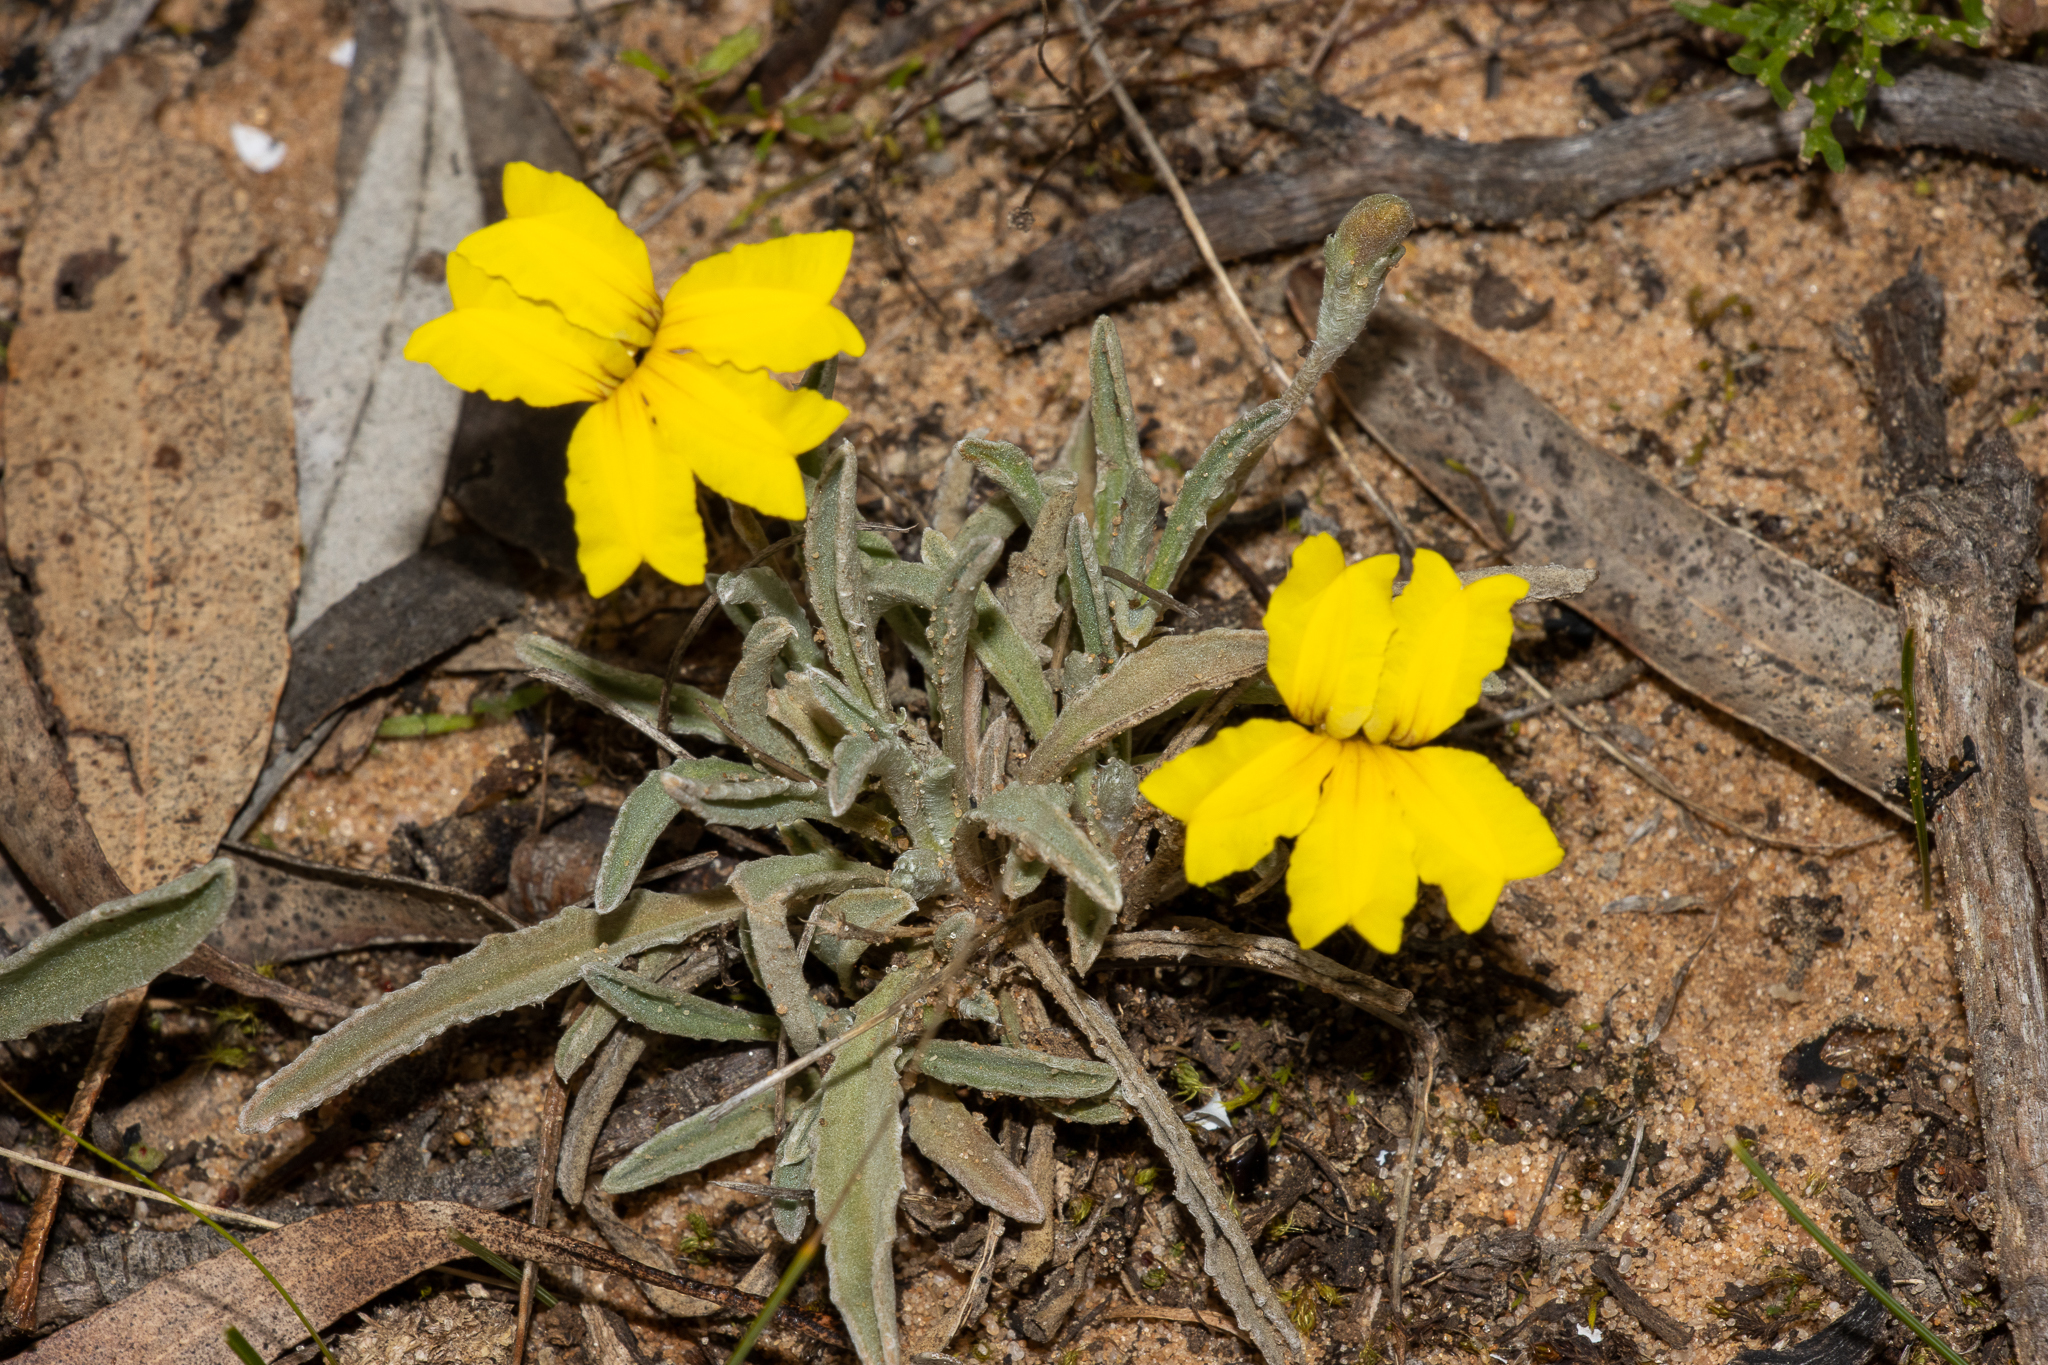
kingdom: Plantae
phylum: Tracheophyta
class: Magnoliopsida
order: Asterales
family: Goodeniaceae
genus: Goodenia
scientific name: Goodenia willisiana
